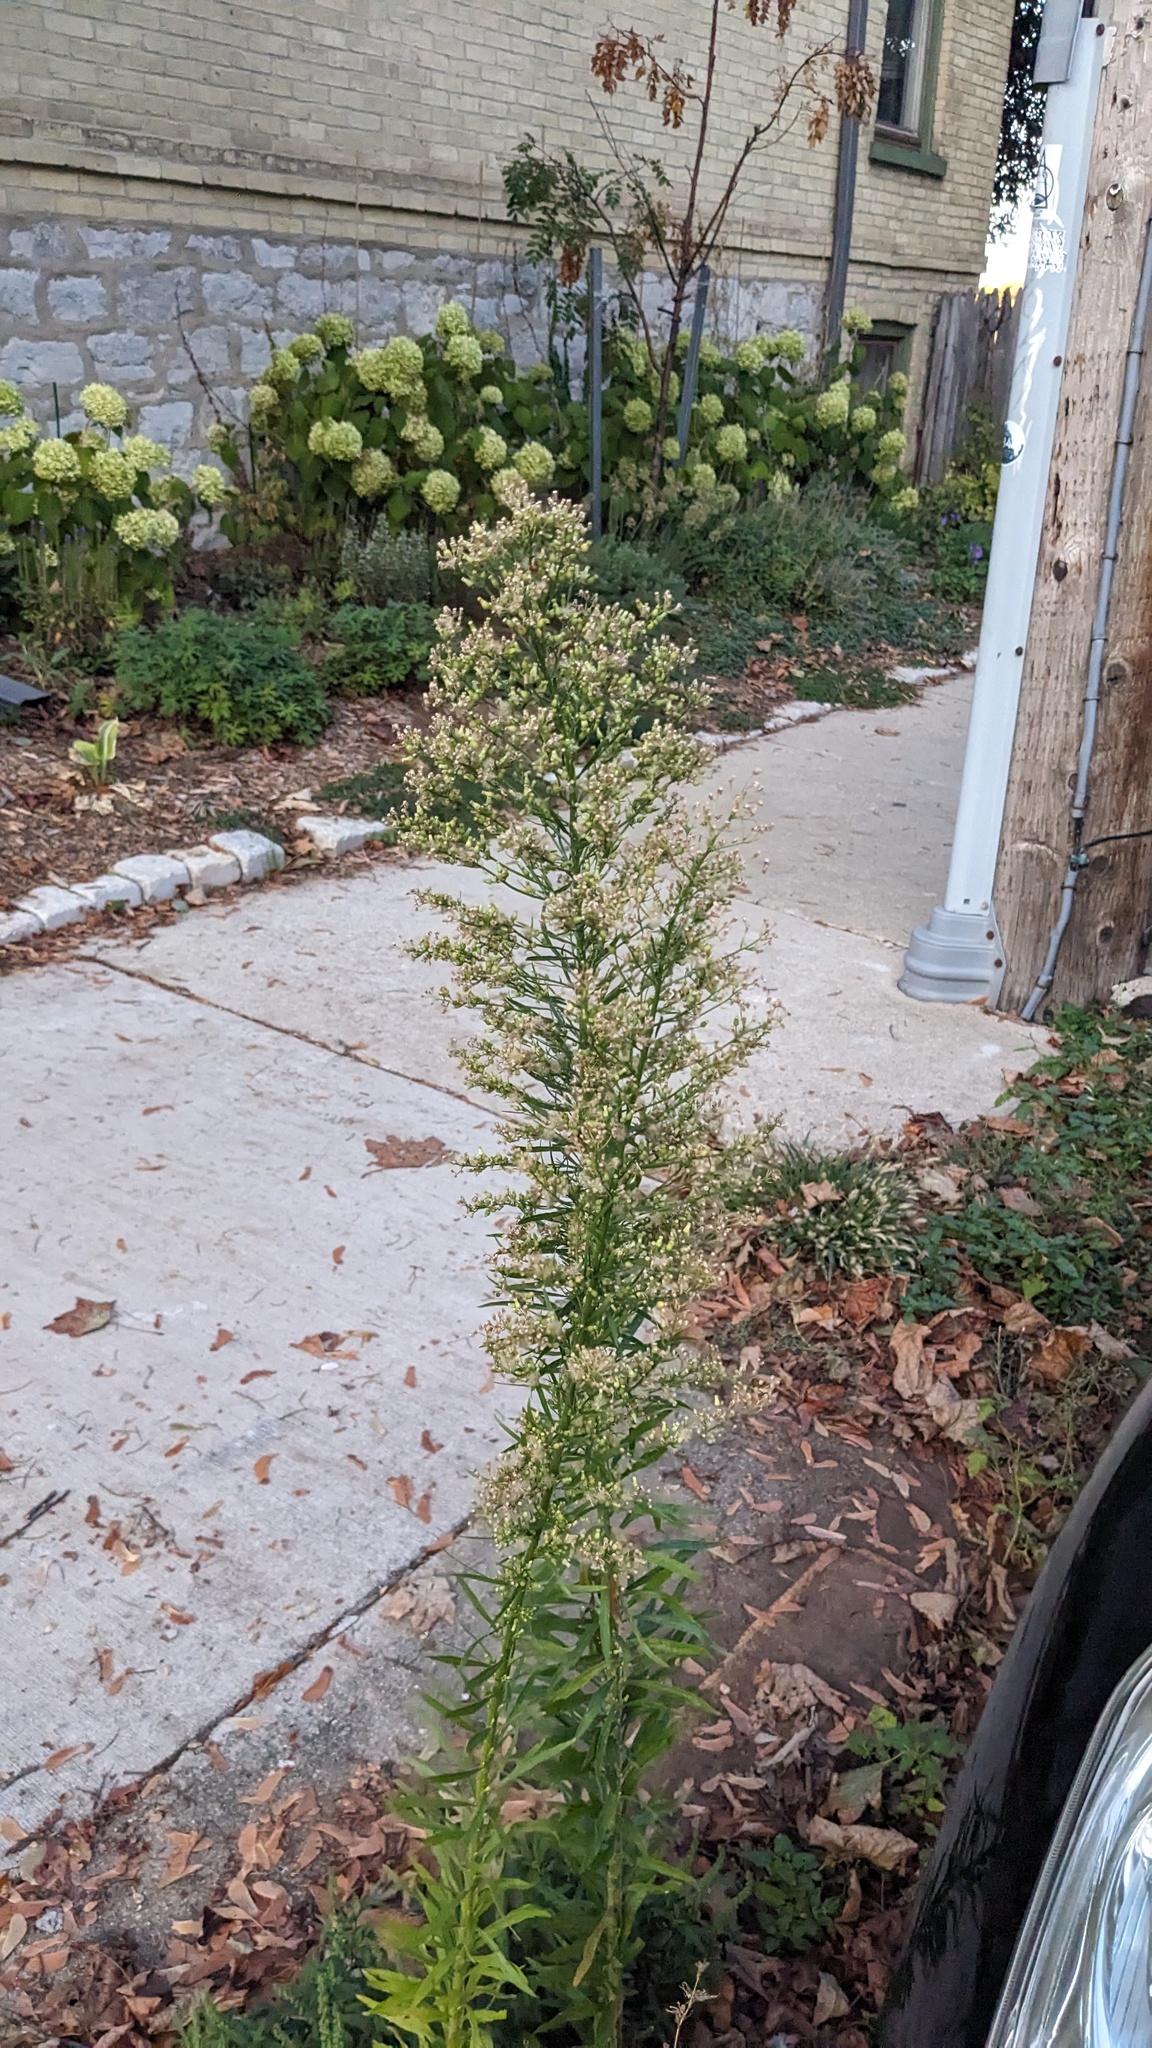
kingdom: Plantae
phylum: Tracheophyta
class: Magnoliopsida
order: Asterales
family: Asteraceae
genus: Erigeron
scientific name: Erigeron canadensis
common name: Canadian fleabane
